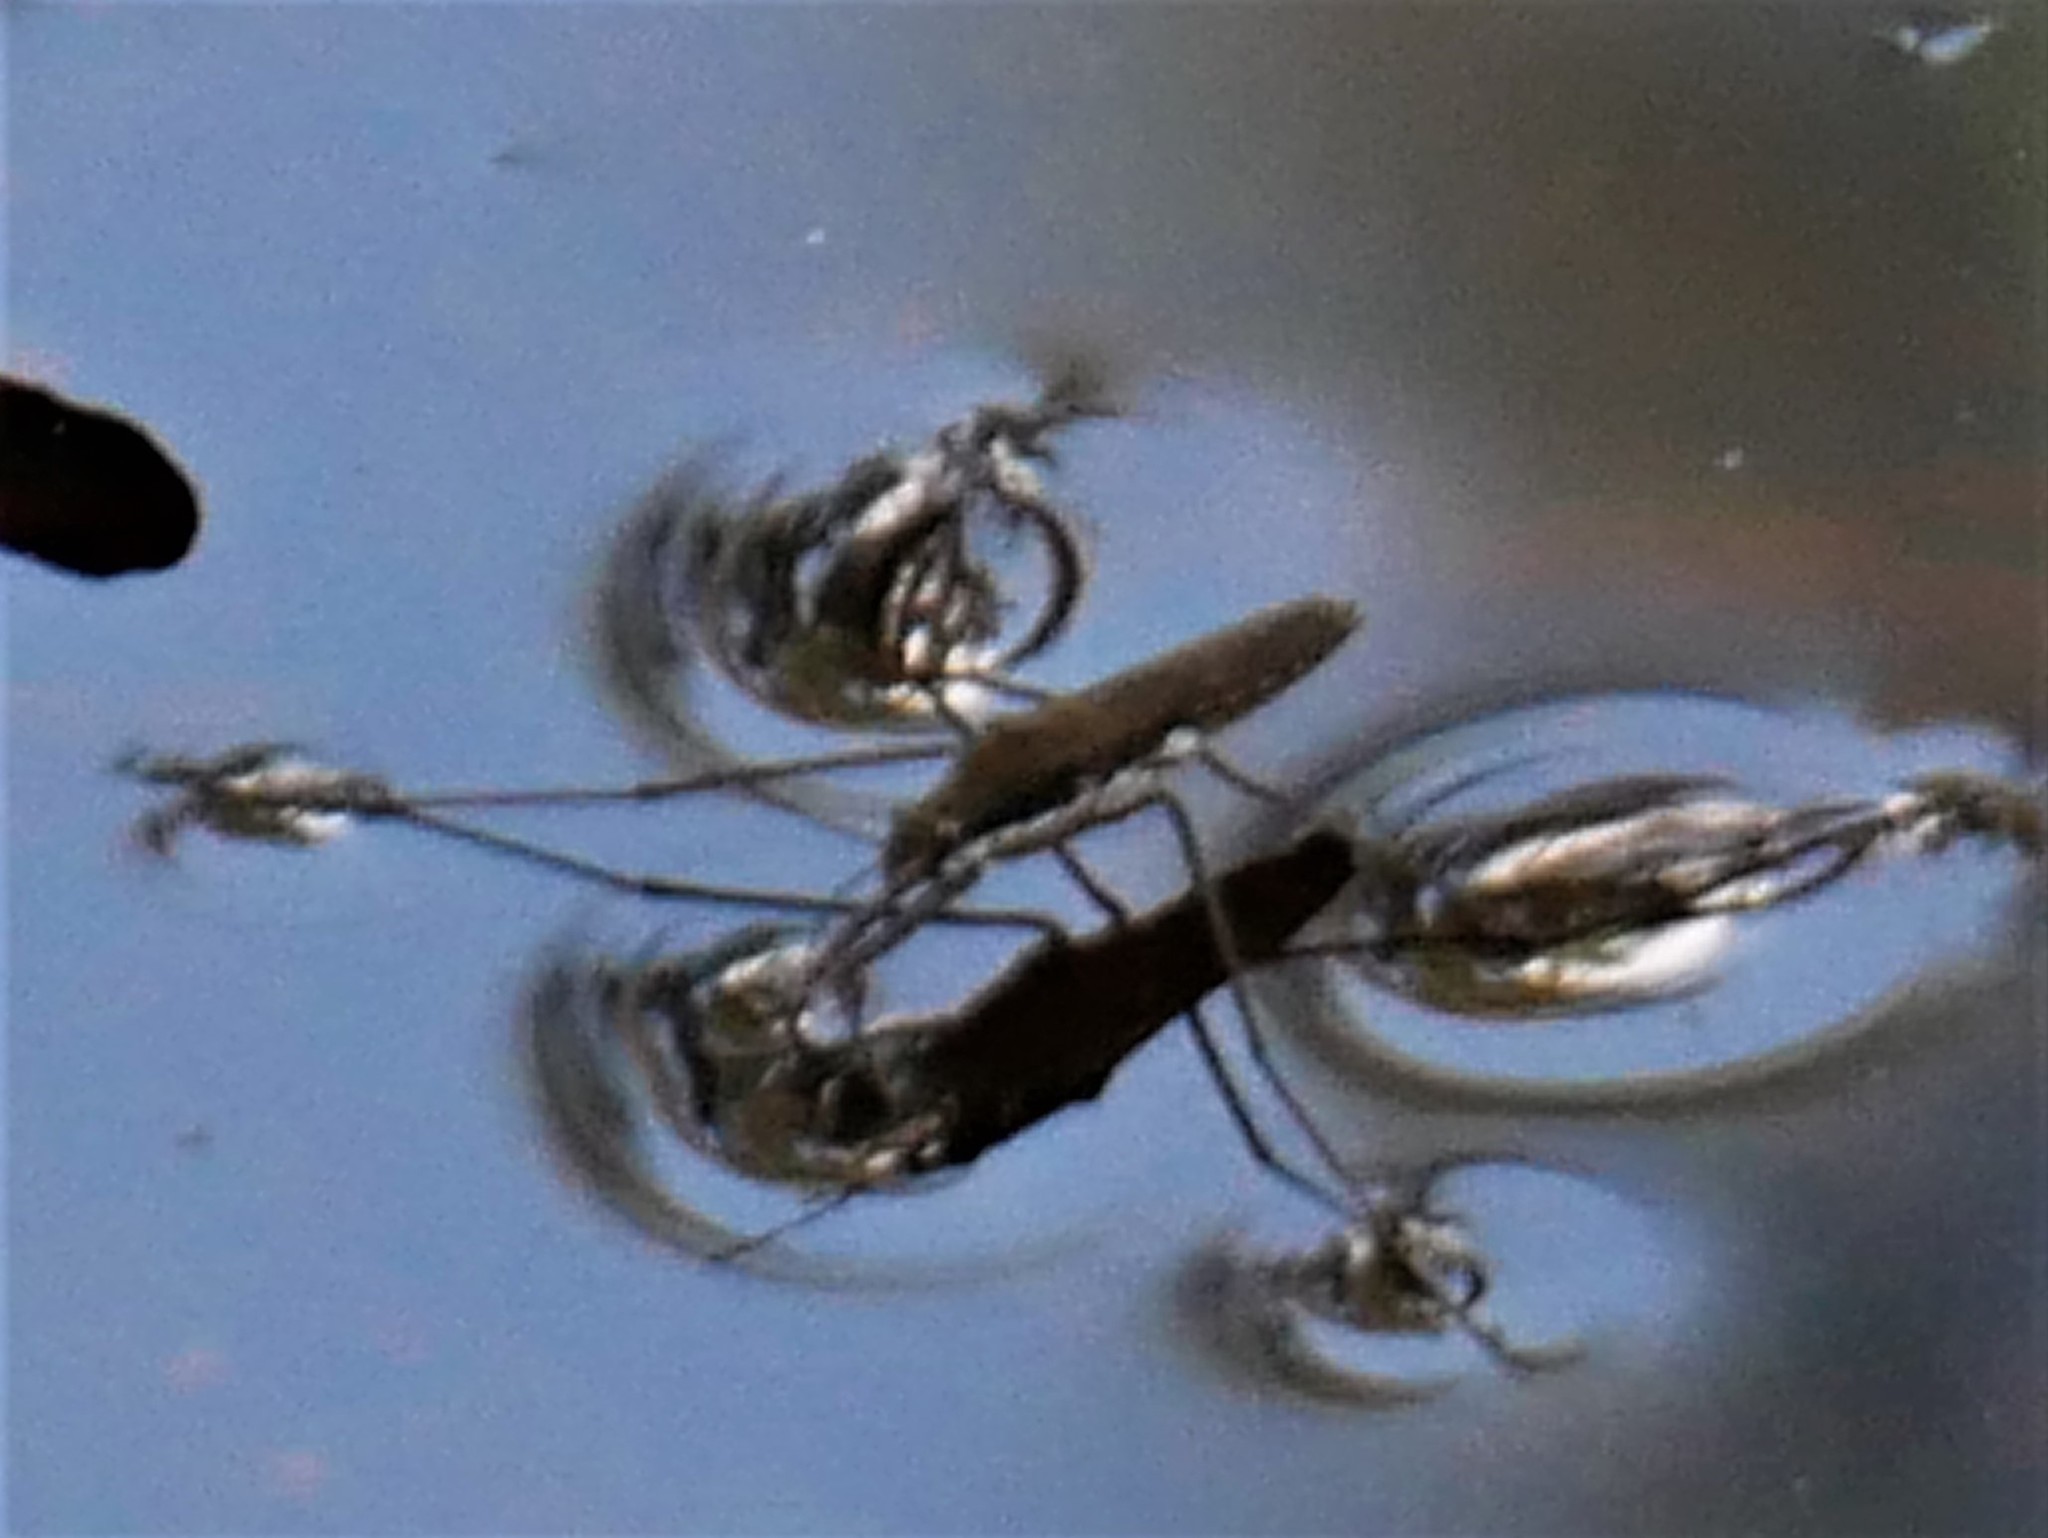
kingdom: Animalia
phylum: Arthropoda
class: Insecta
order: Hemiptera
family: Gerridae
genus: Aquarius
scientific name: Aquarius remigis
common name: Common water strider
